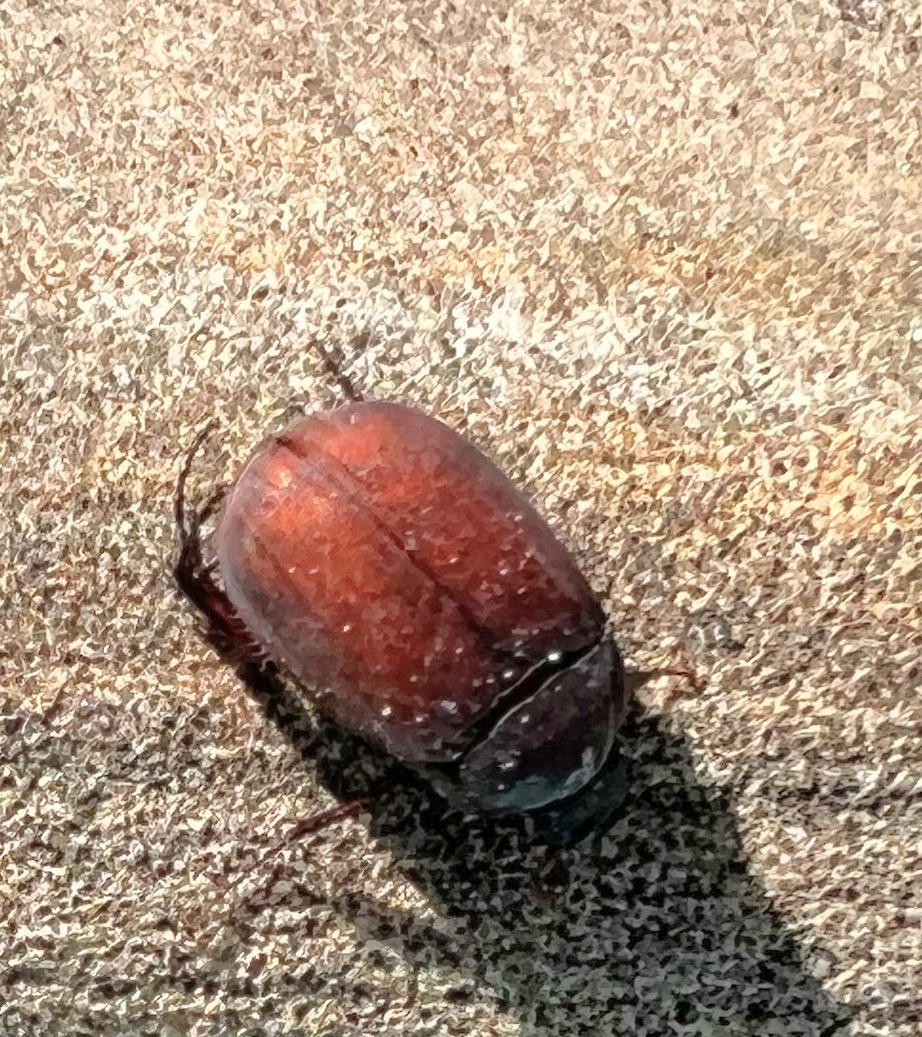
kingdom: Animalia
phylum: Arthropoda
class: Insecta
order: Coleoptera
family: Scarabaeidae
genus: Maladera
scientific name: Maladera insanabilis
